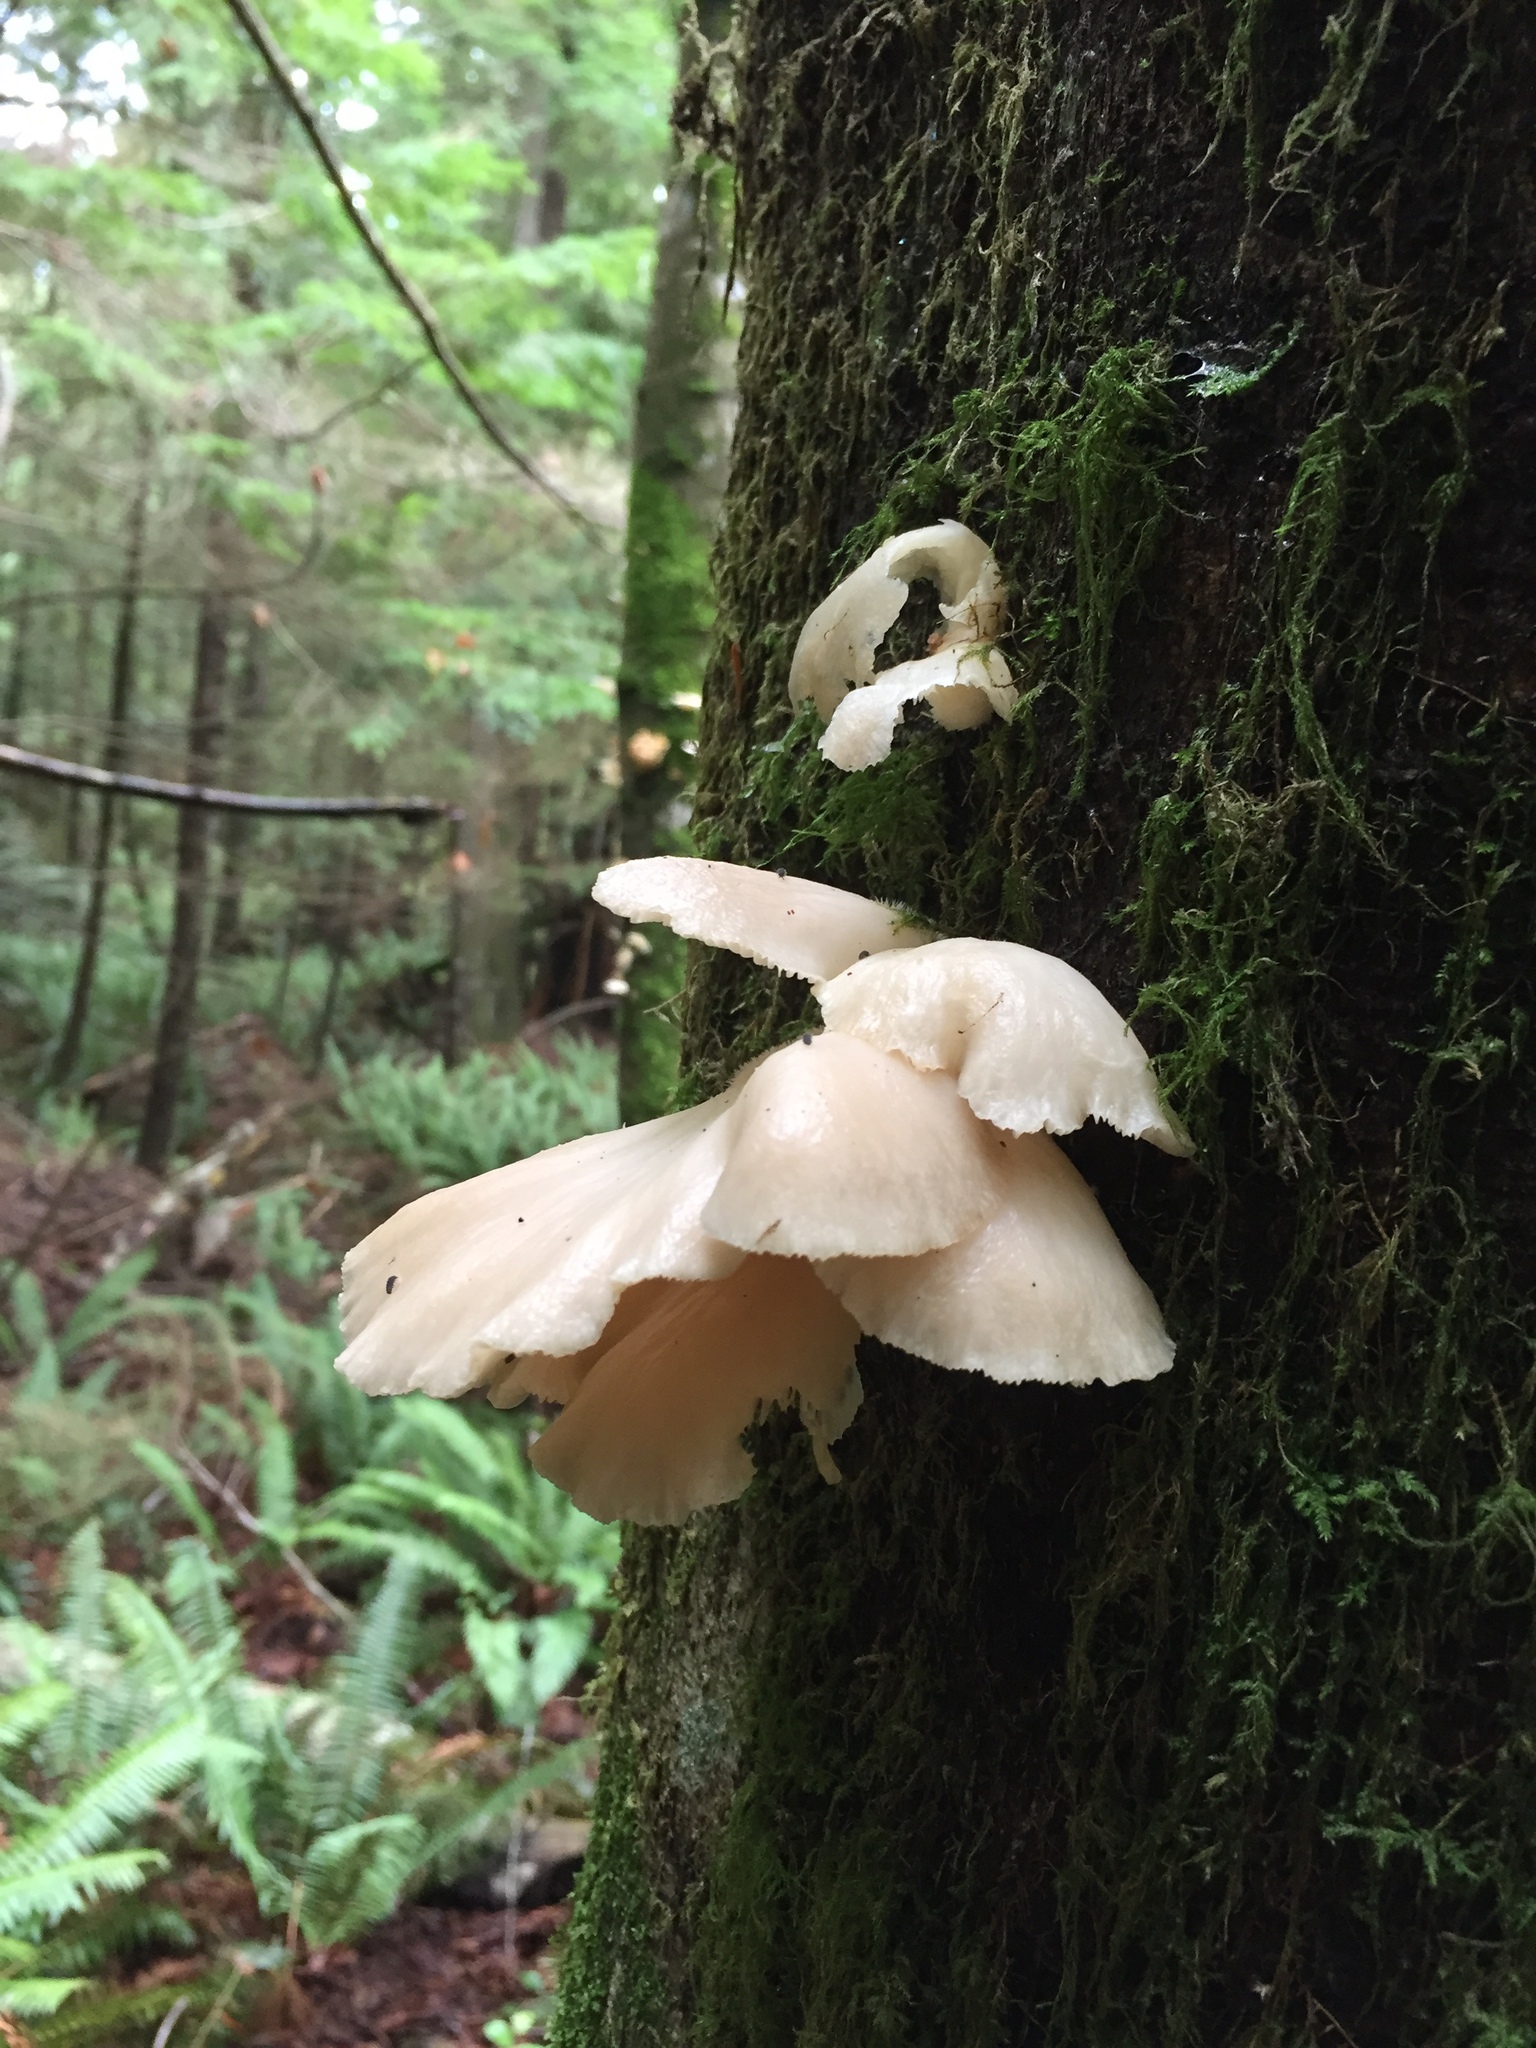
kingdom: Fungi
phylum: Basidiomycota
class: Agaricomycetes
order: Agaricales
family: Pleurotaceae
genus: Pleurotus
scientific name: Pleurotus ostreatus
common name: Oyster mushroom
